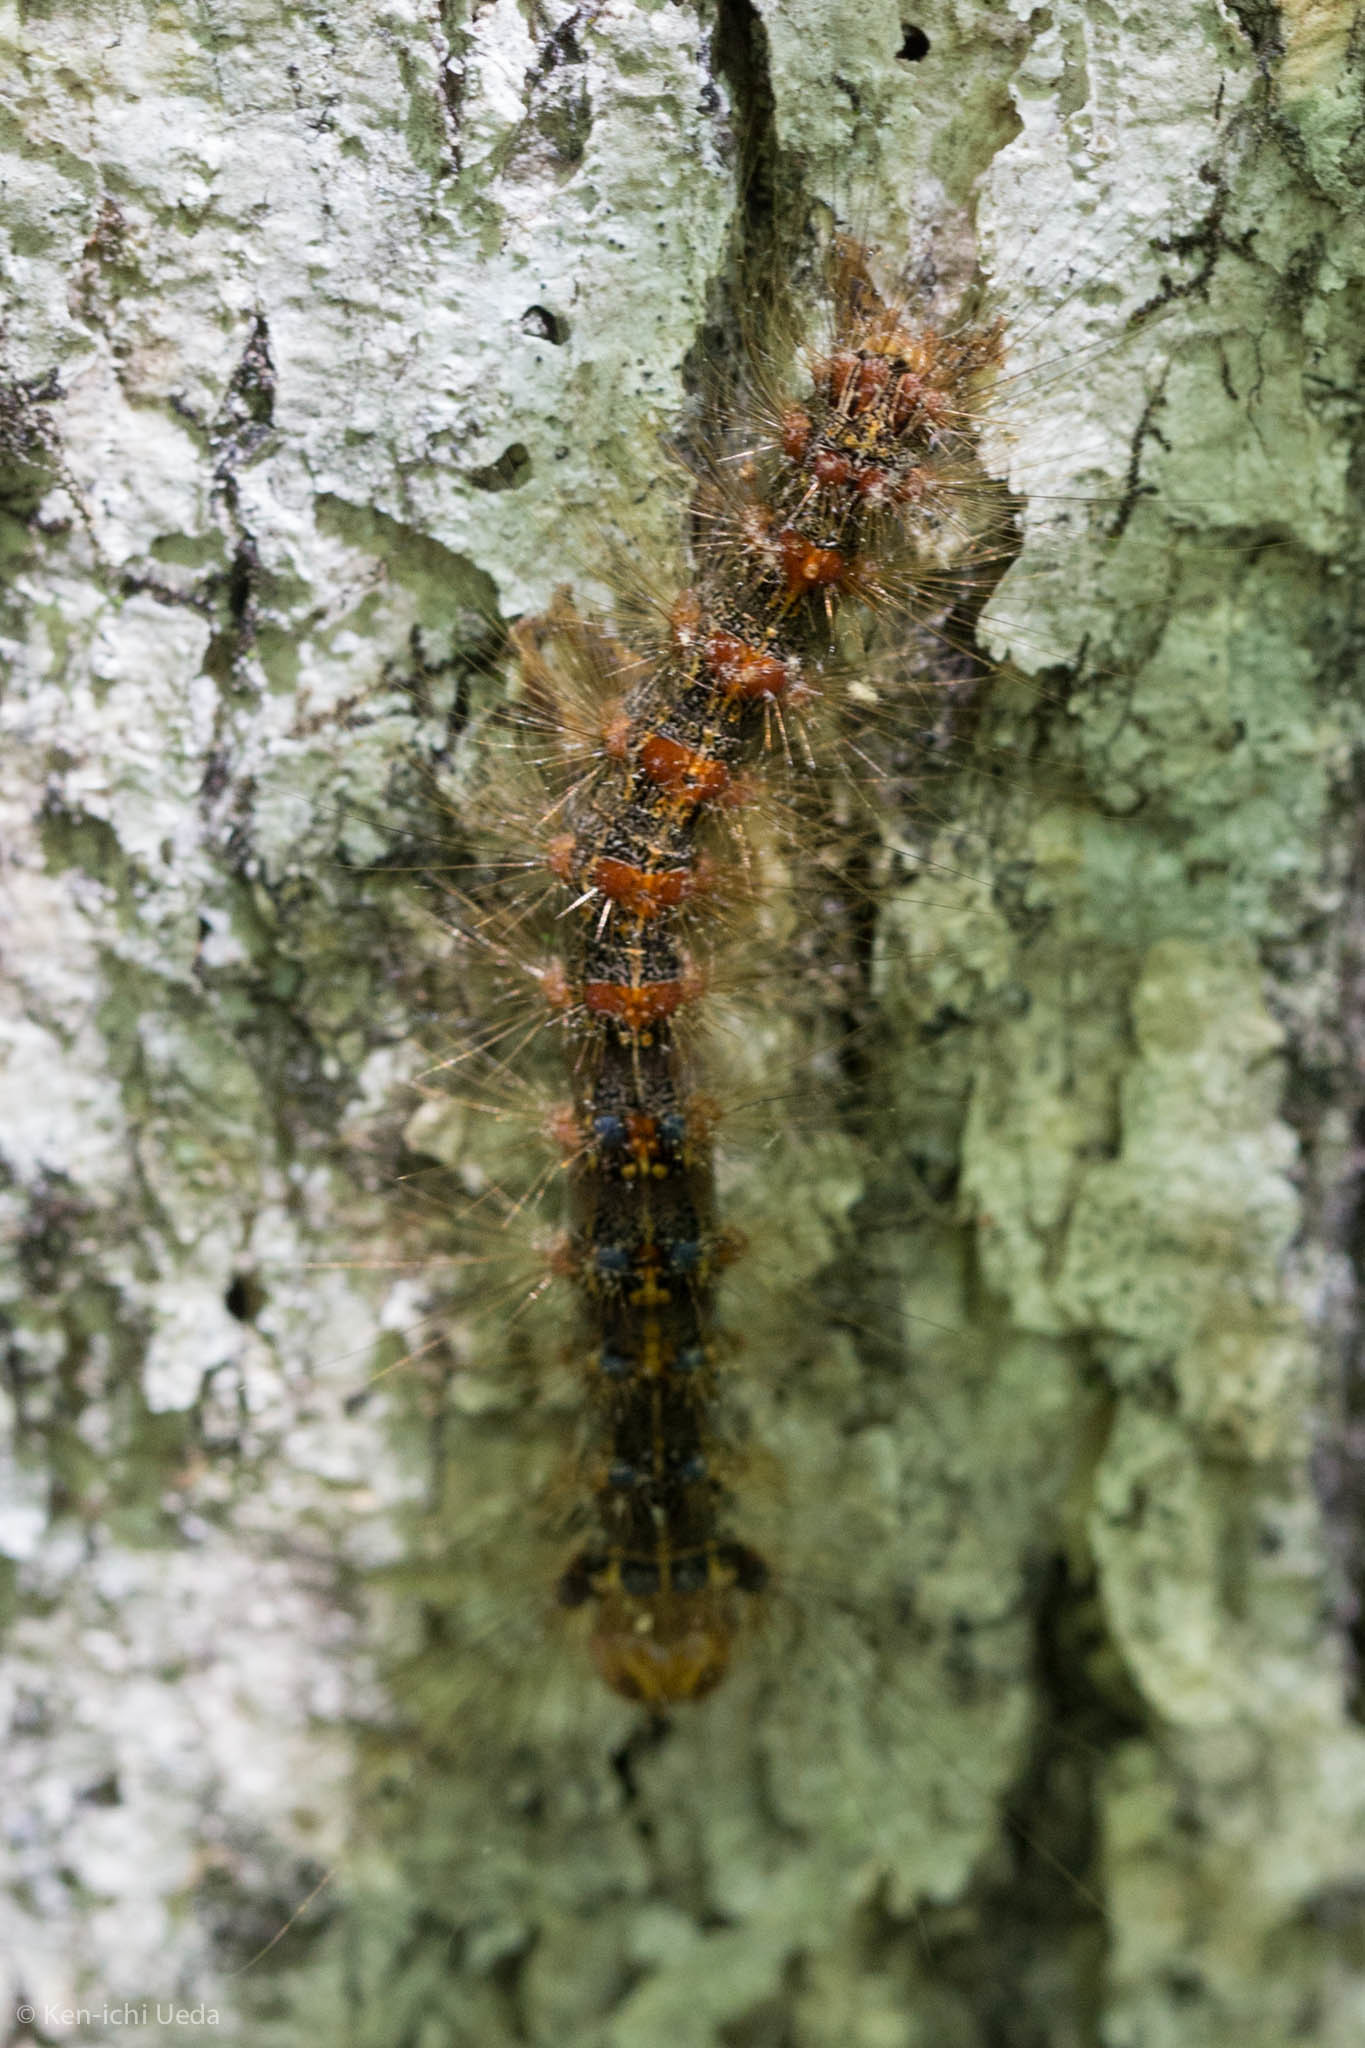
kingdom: Animalia
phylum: Arthropoda
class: Insecta
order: Lepidoptera
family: Erebidae
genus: Lymantria
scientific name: Lymantria dispar
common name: Gypsy moth
